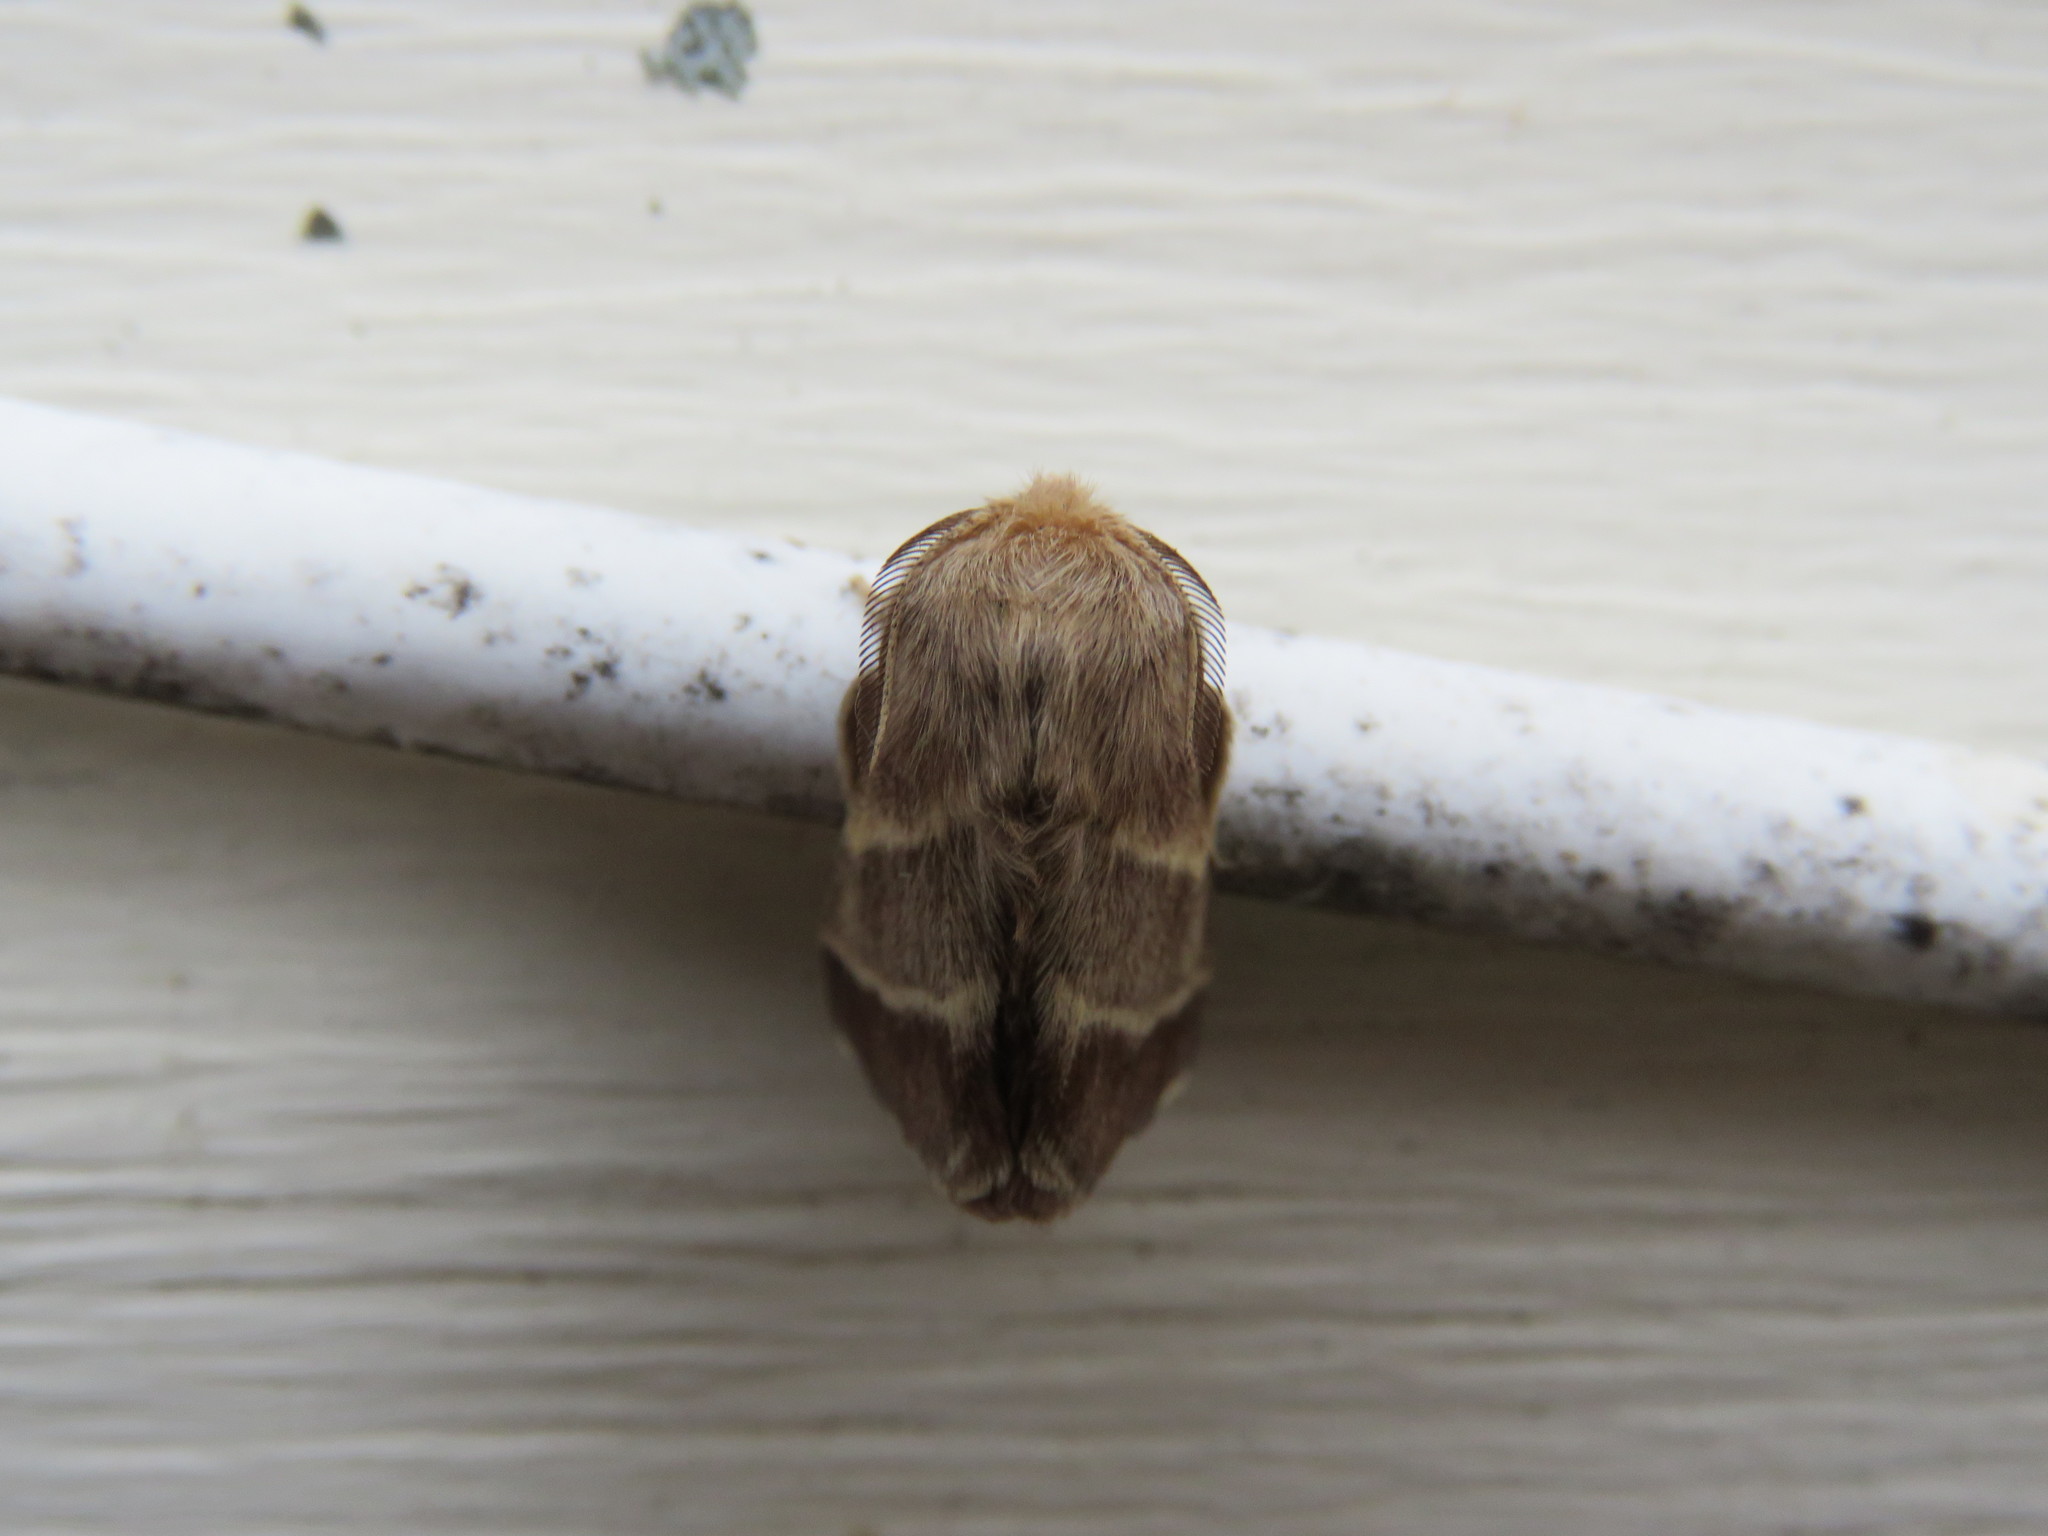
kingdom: Animalia
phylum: Arthropoda
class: Insecta
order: Lepidoptera
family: Lasiocampidae
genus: Malacosoma
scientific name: Malacosoma americana
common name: Eastern tent caterpillar moth
